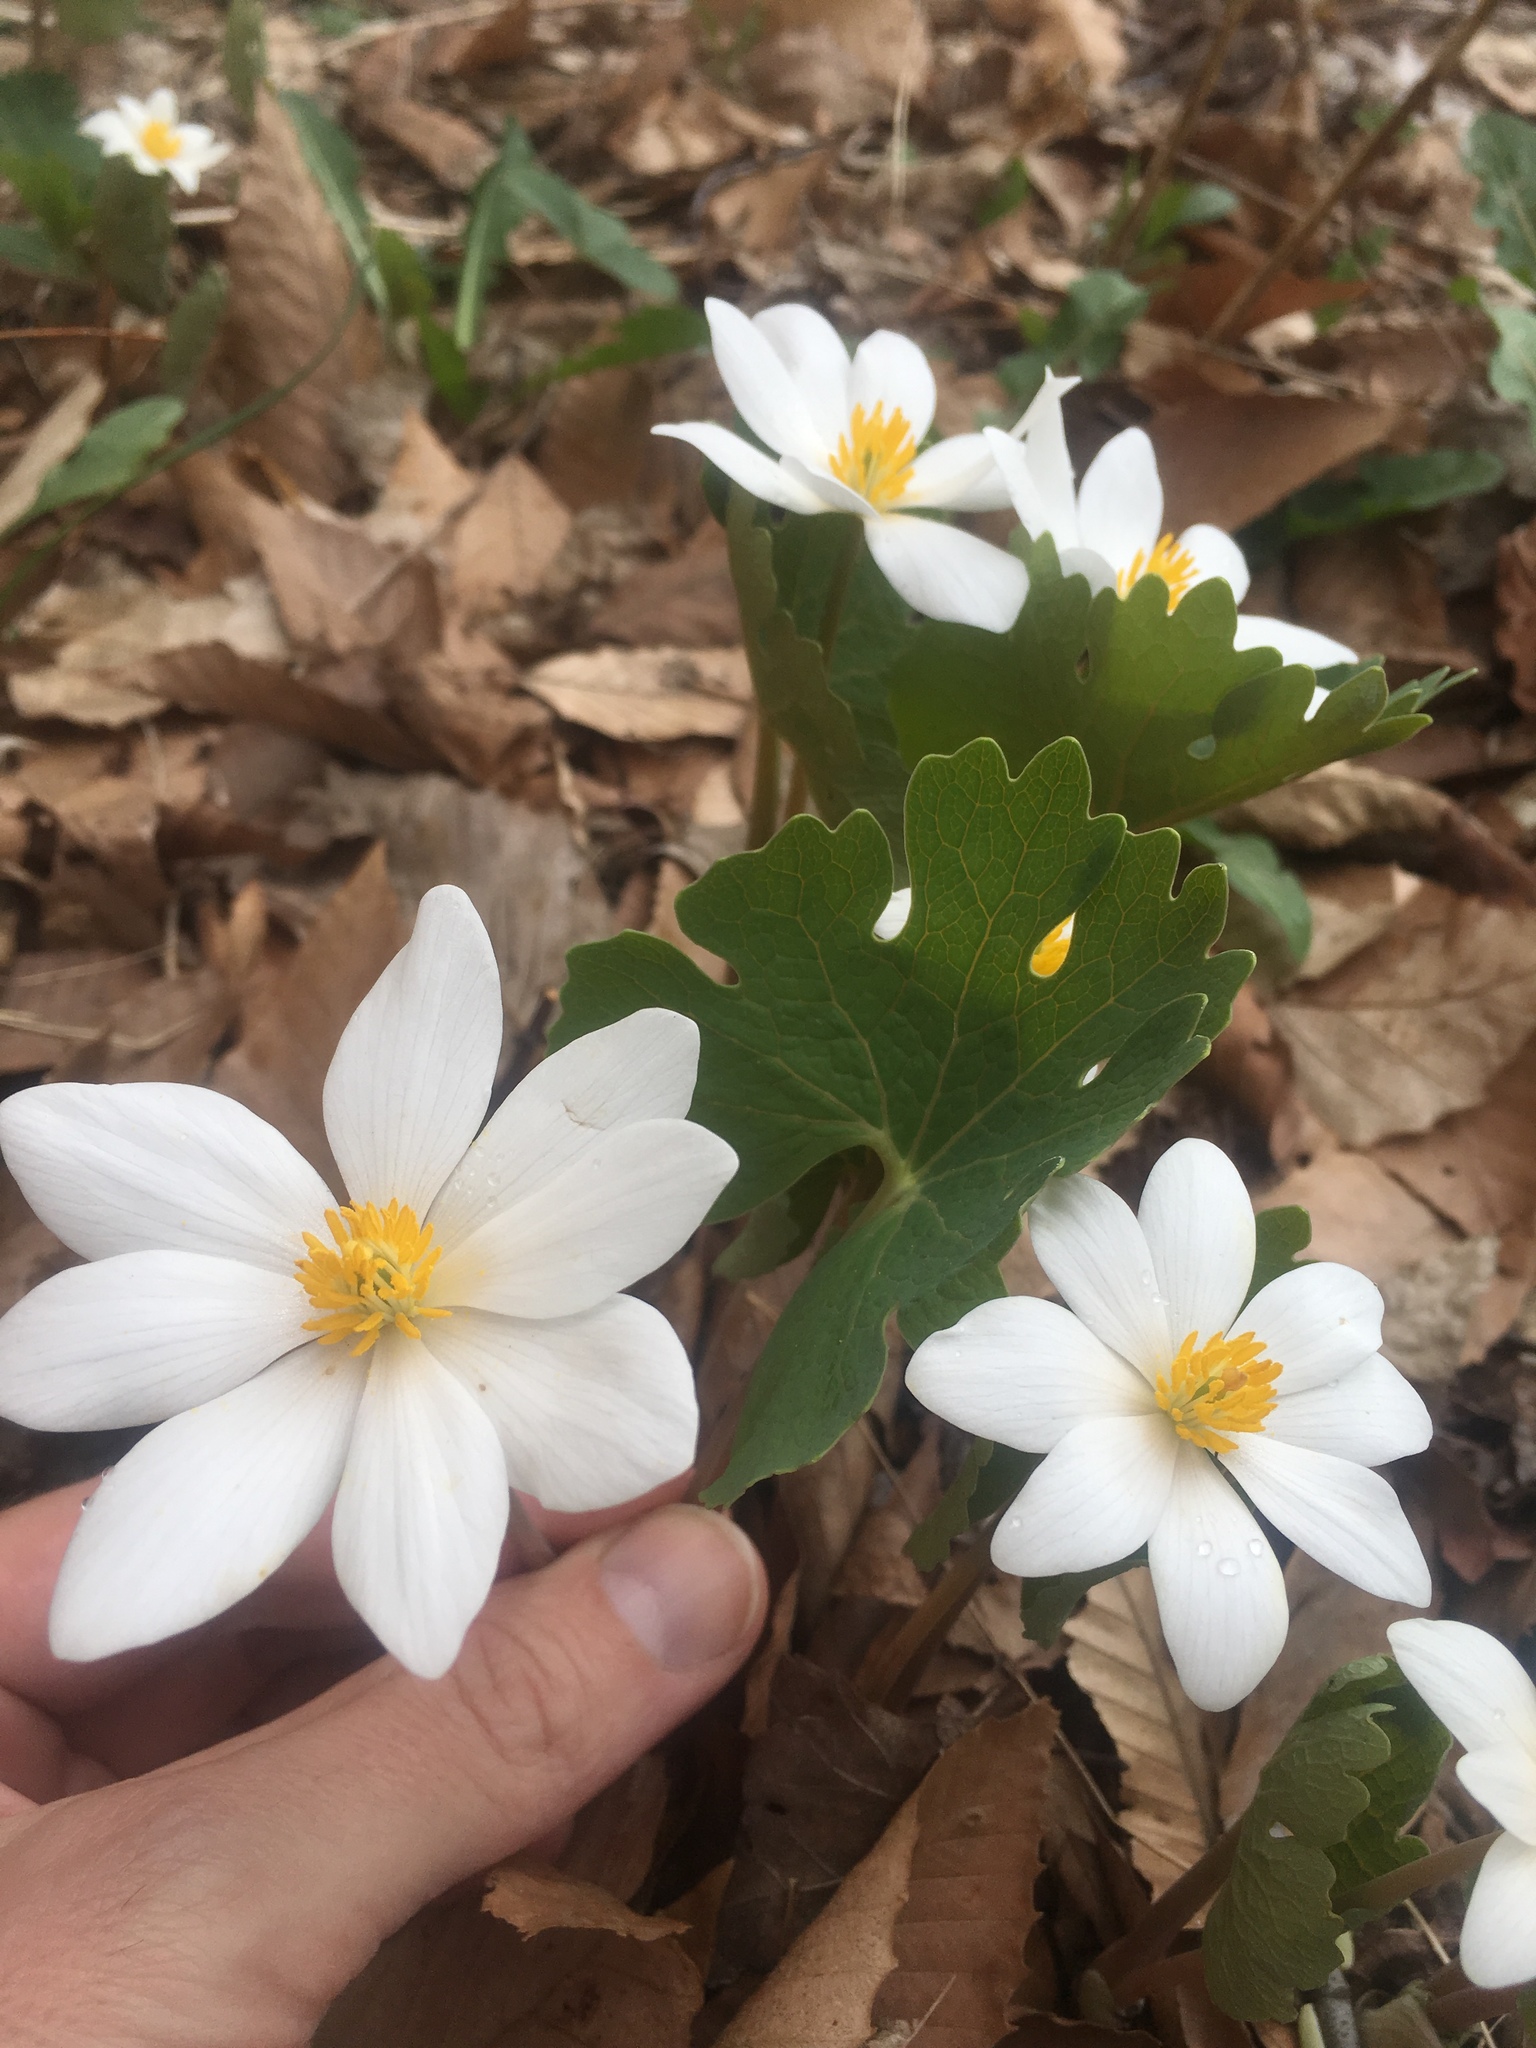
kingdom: Plantae
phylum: Tracheophyta
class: Magnoliopsida
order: Ranunculales
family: Papaveraceae
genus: Sanguinaria
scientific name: Sanguinaria canadensis
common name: Bloodroot
